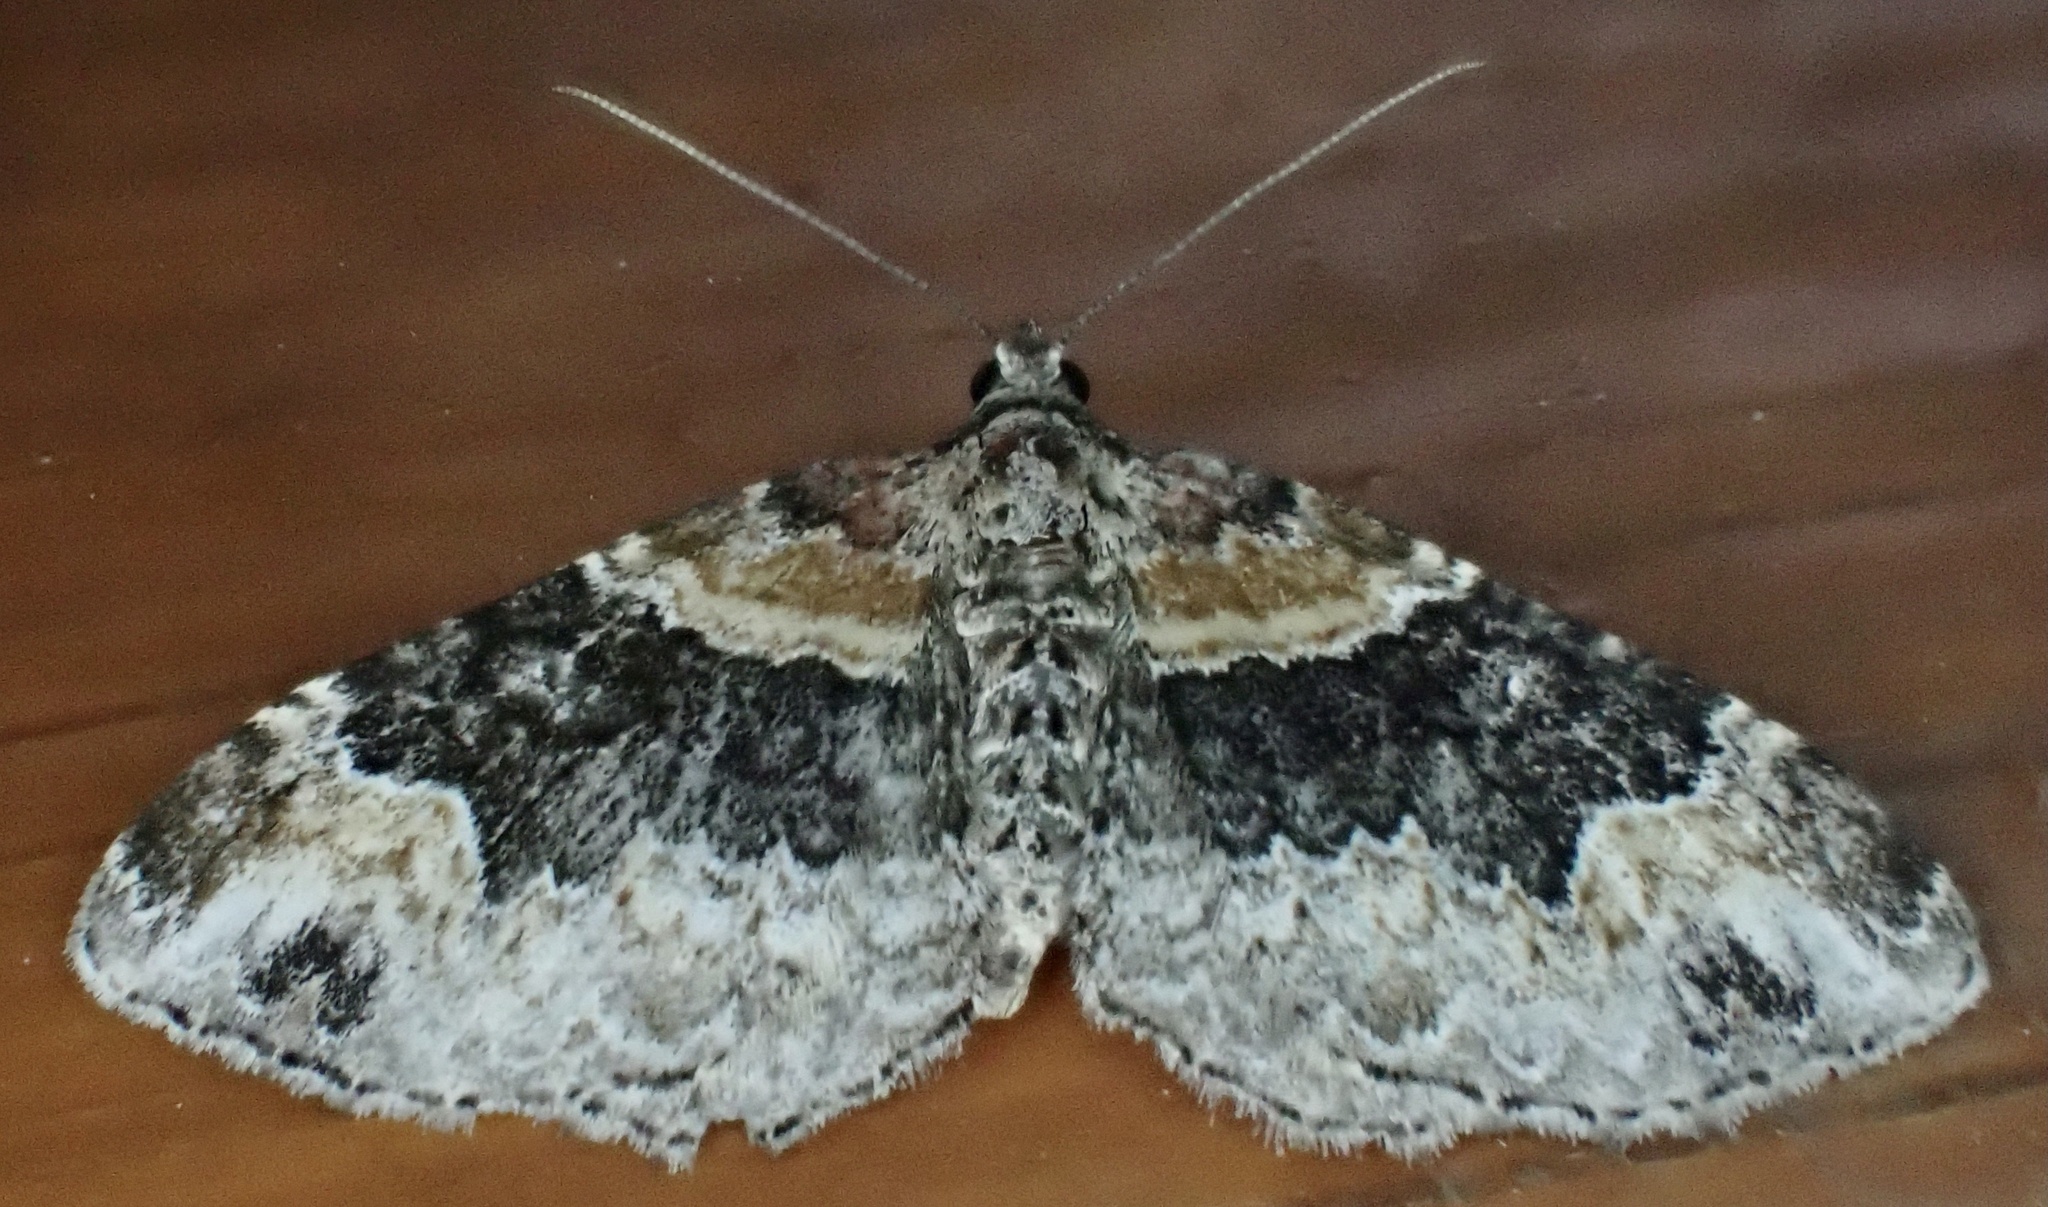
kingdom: Animalia
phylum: Arthropoda
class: Insecta
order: Lepidoptera
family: Geometridae
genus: Xanthorhoe
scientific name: Xanthorhoe ferrugata
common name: Dark-barred twin-spot carpet
